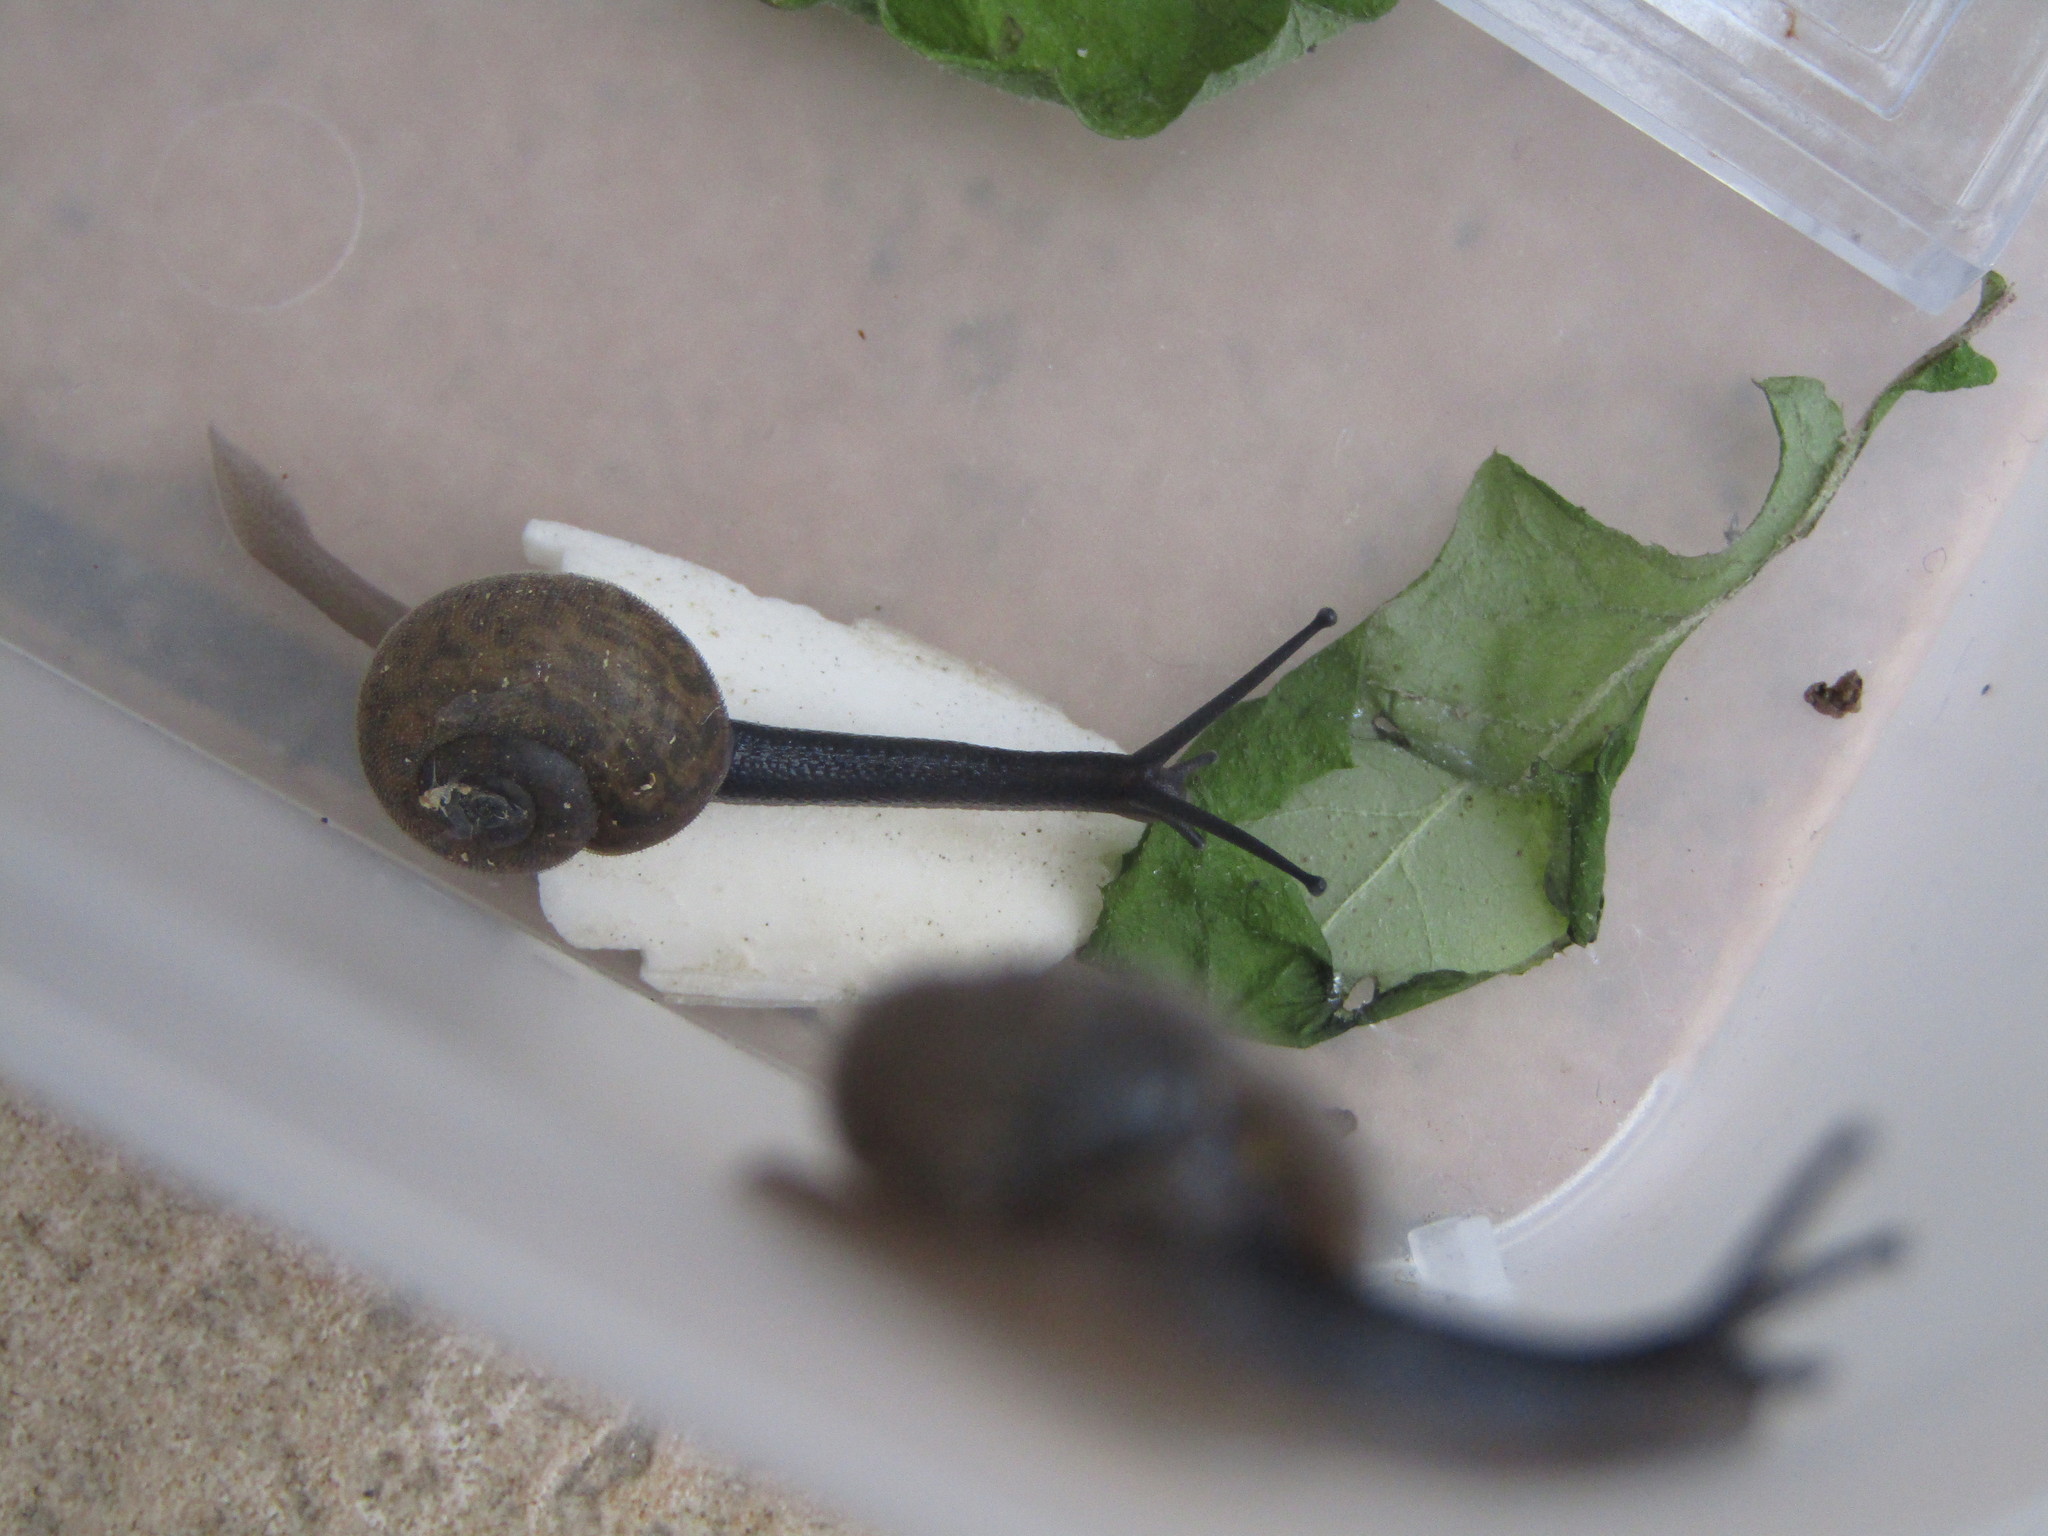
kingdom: Animalia
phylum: Mollusca
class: Gastropoda
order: Stylommatophora
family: Camaenidae
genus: Nipponochloritis
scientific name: Nipponochloritis
